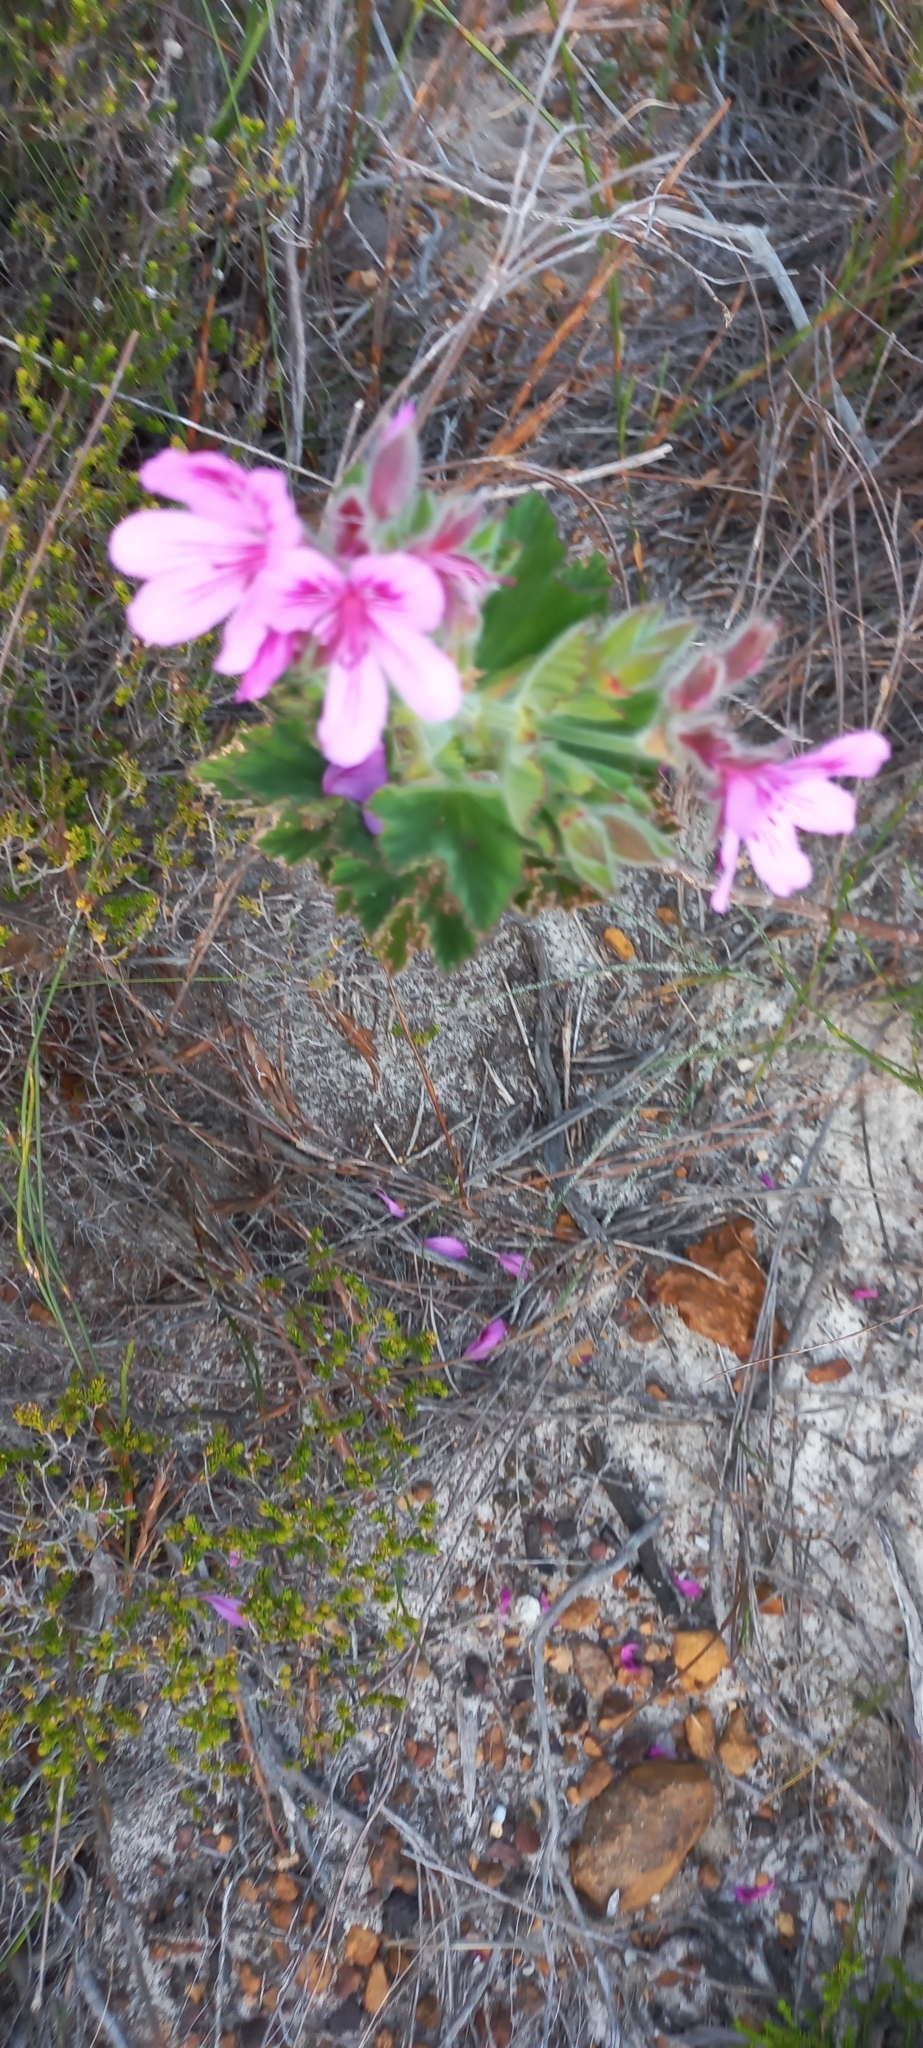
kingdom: Plantae
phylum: Tracheophyta
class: Magnoliopsida
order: Geraniales
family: Geraniaceae
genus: Pelargonium
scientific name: Pelargonium cucullatum
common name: Tree pelargonium
